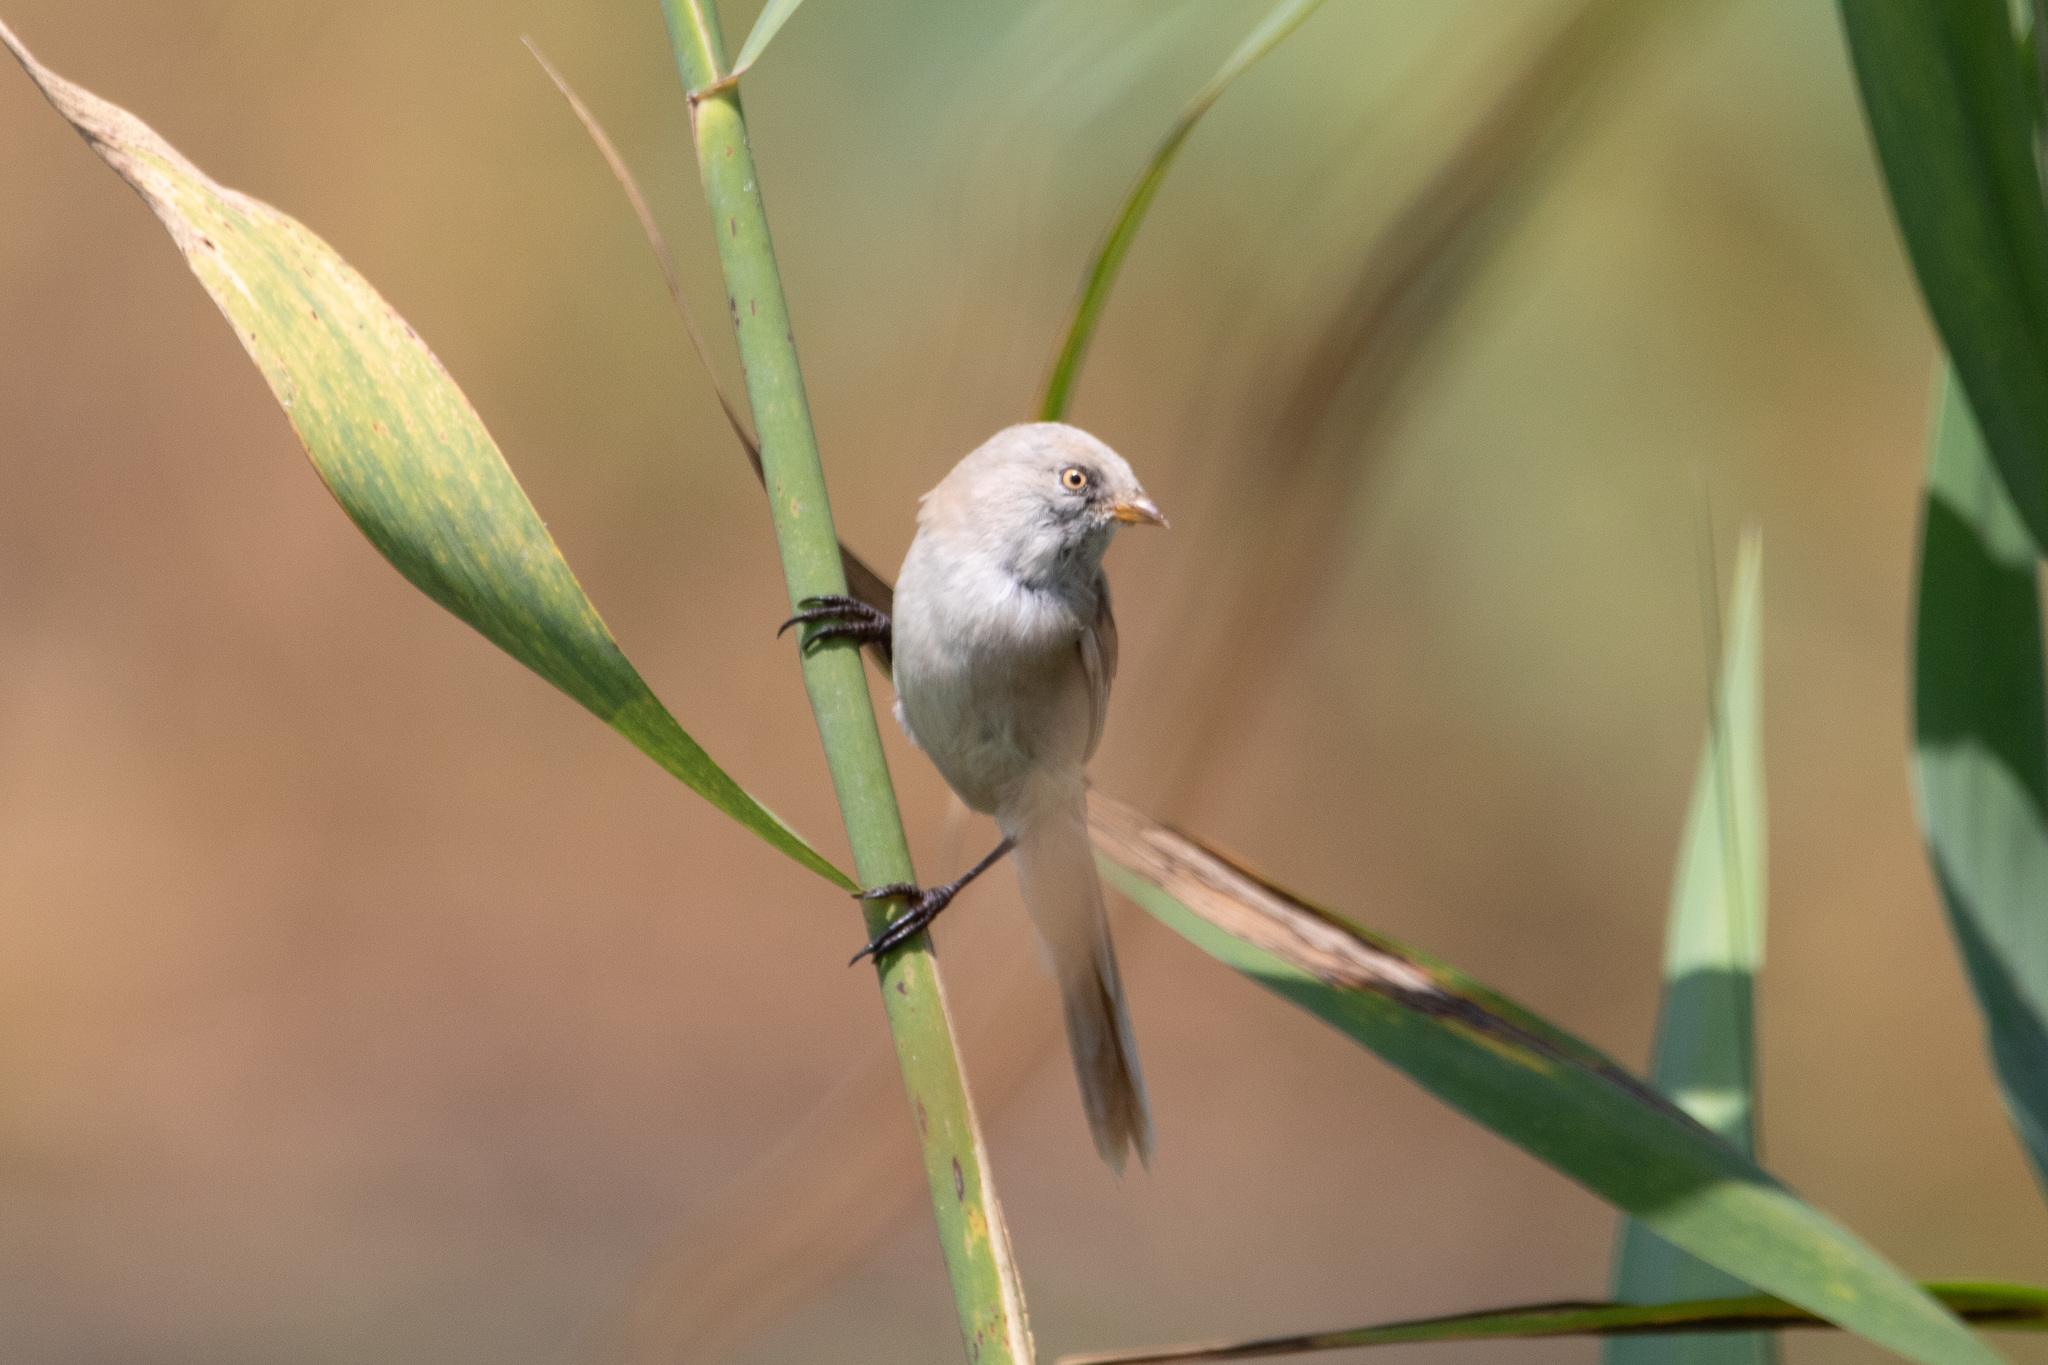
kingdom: Animalia
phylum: Chordata
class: Aves
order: Passeriformes
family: Panuridae
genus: Panurus
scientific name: Panurus biarmicus
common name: Bearded reedling
